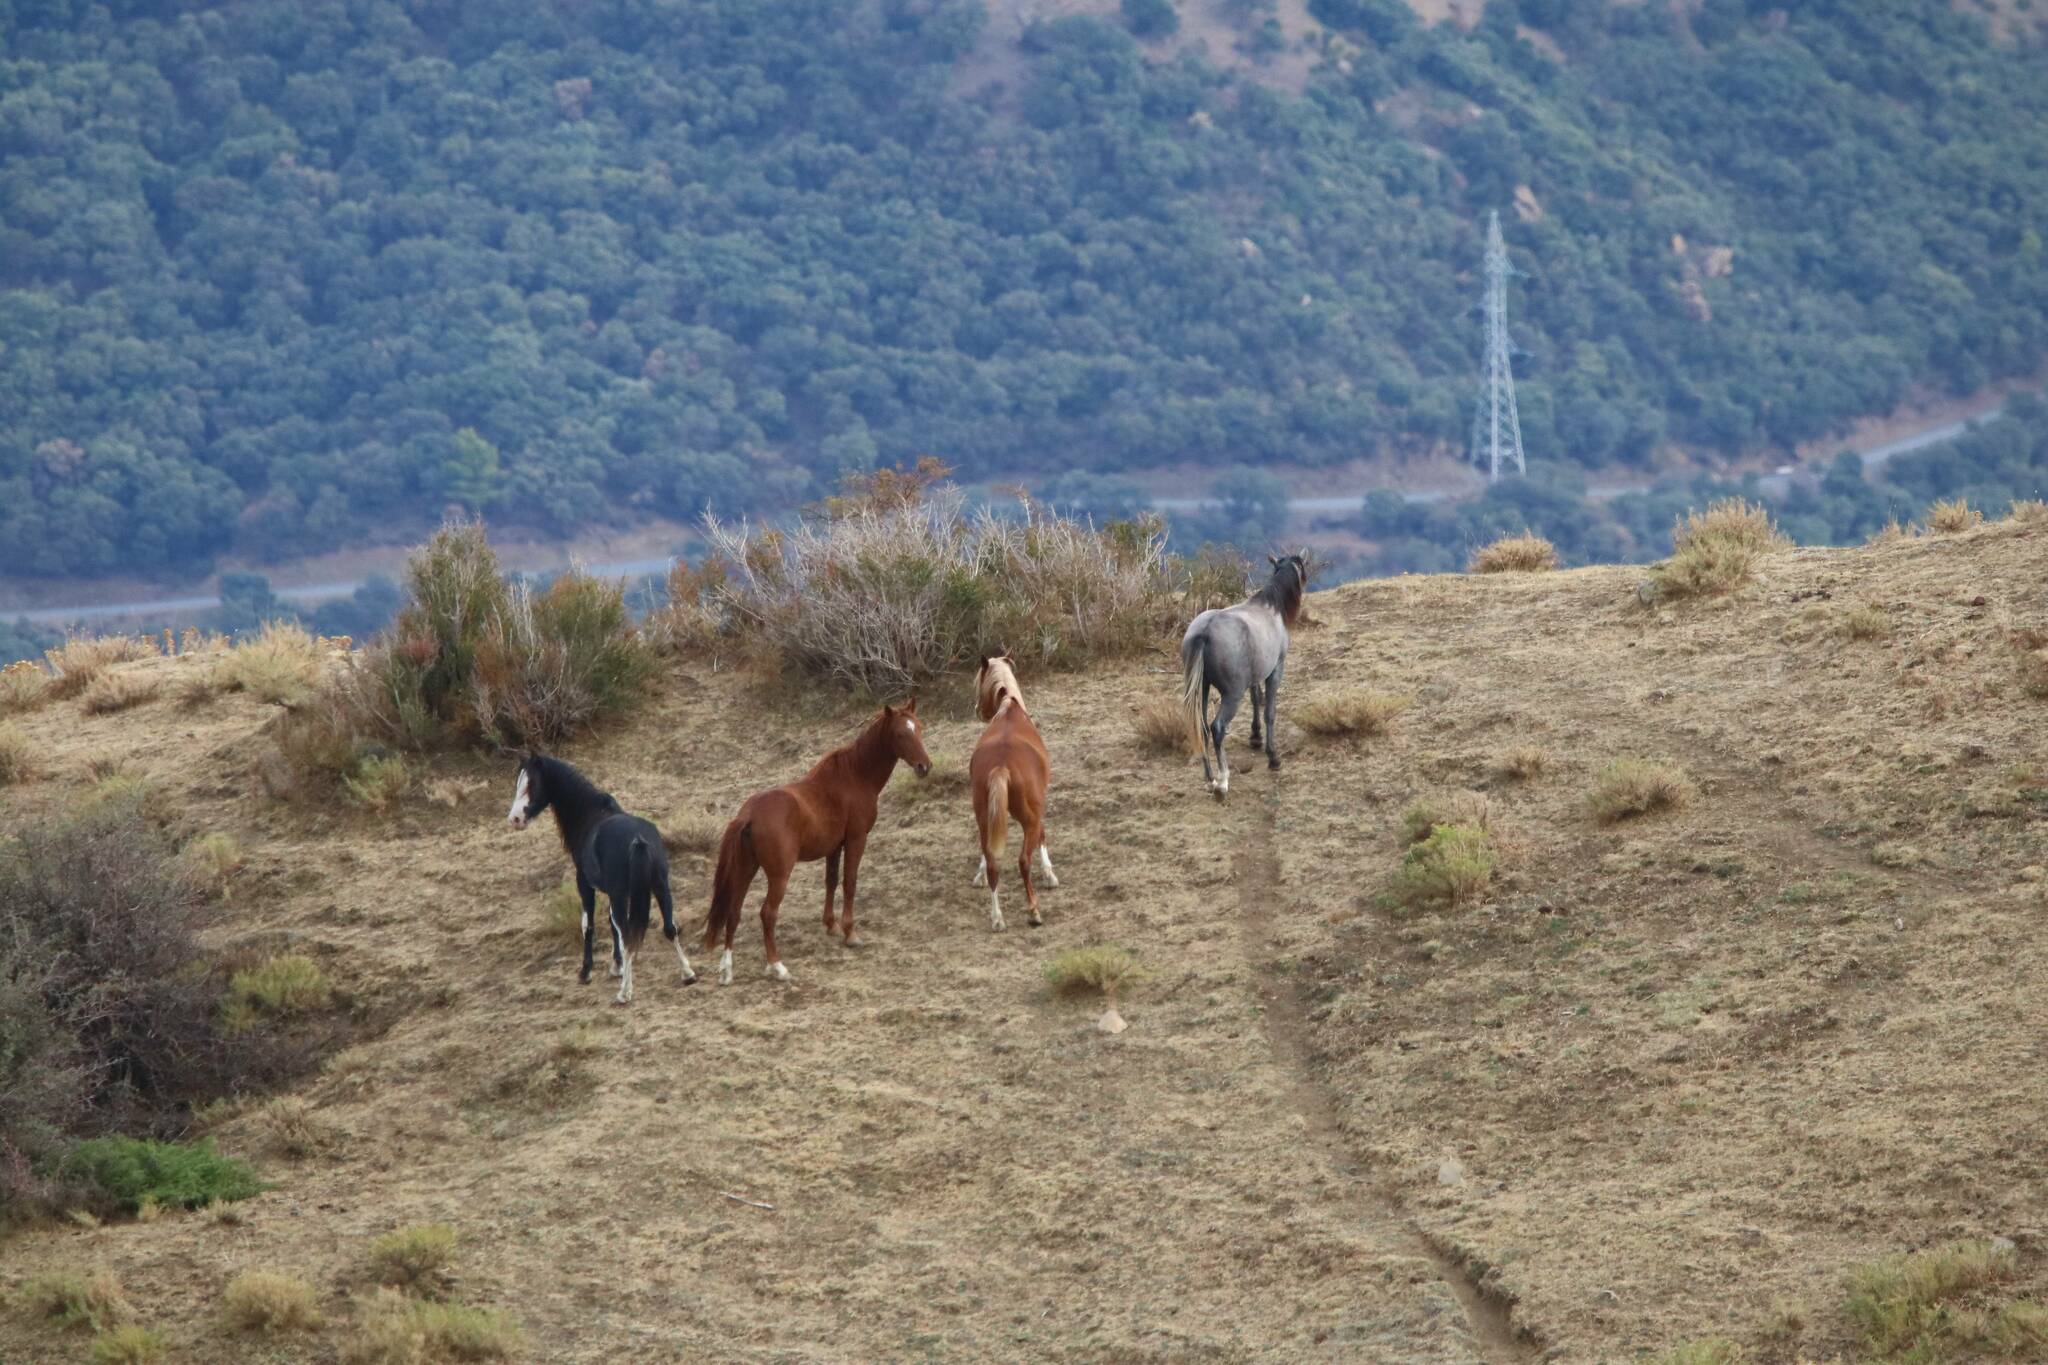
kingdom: Animalia
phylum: Chordata
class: Mammalia
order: Perissodactyla
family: Equidae
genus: Equus
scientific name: Equus caballus
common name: Horse
